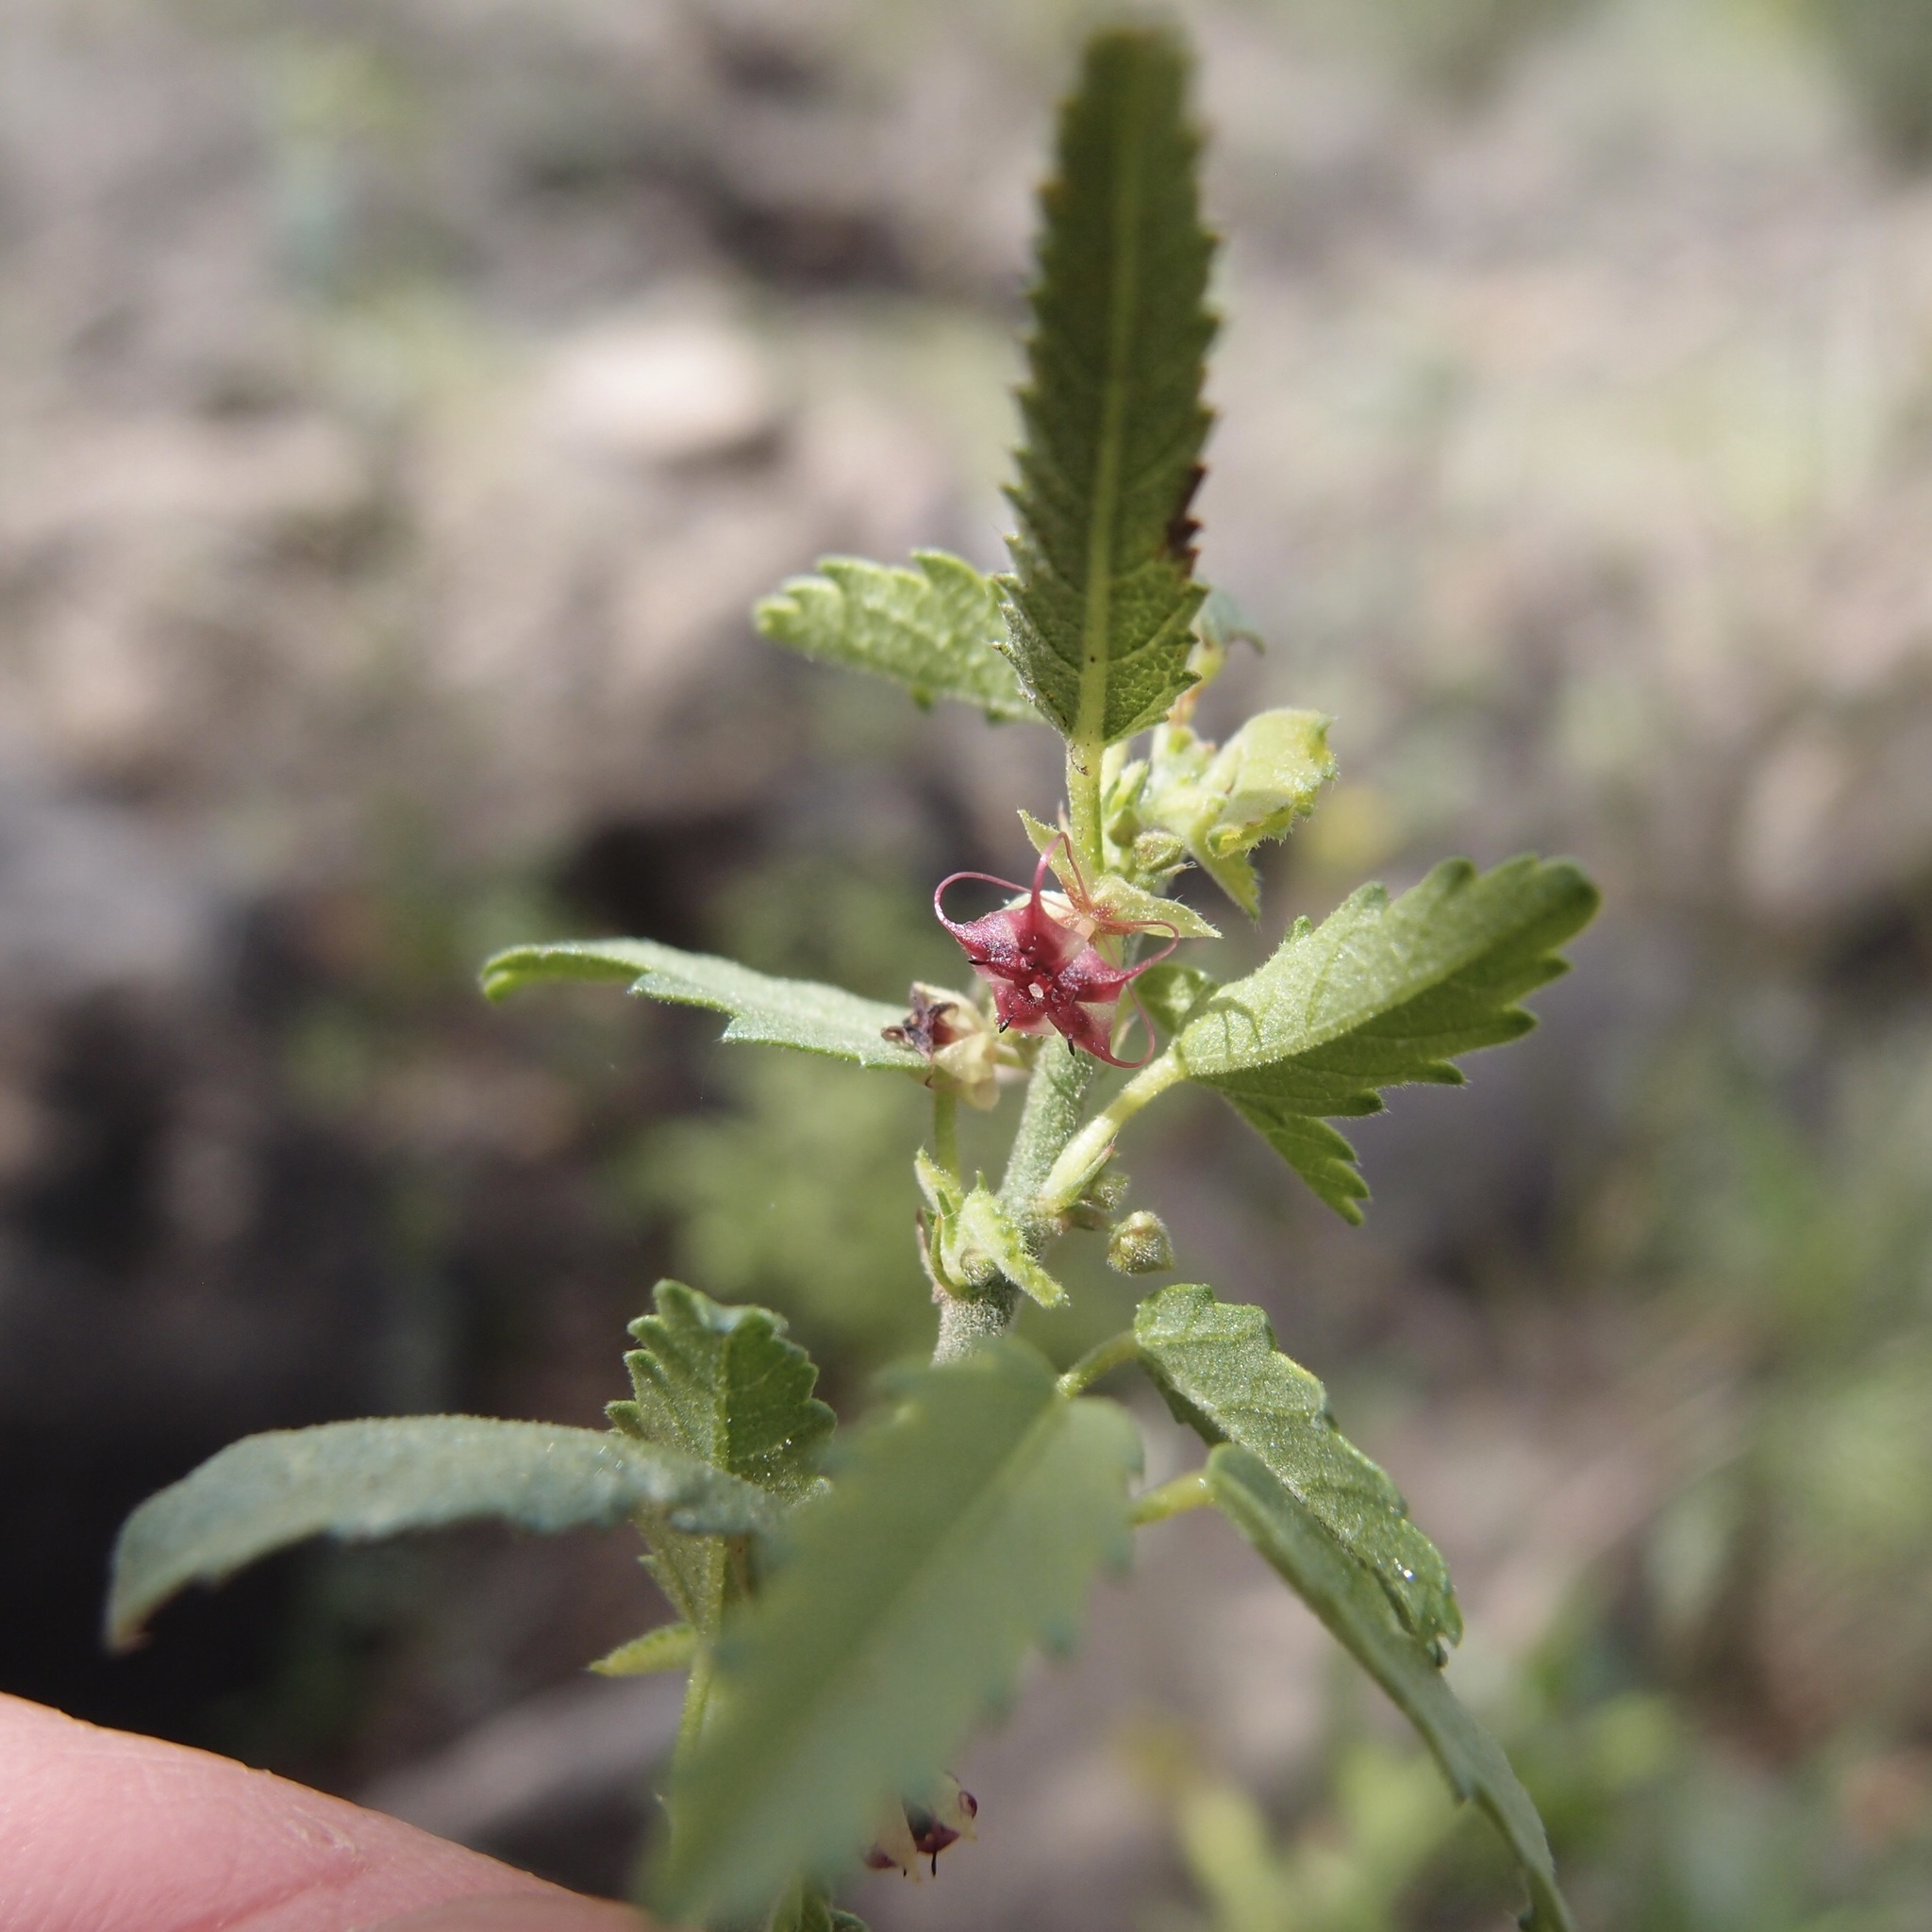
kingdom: Plantae
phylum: Tracheophyta
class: Magnoliopsida
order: Malvales
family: Malvaceae
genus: Ayenia
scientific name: Ayenia filiformis
